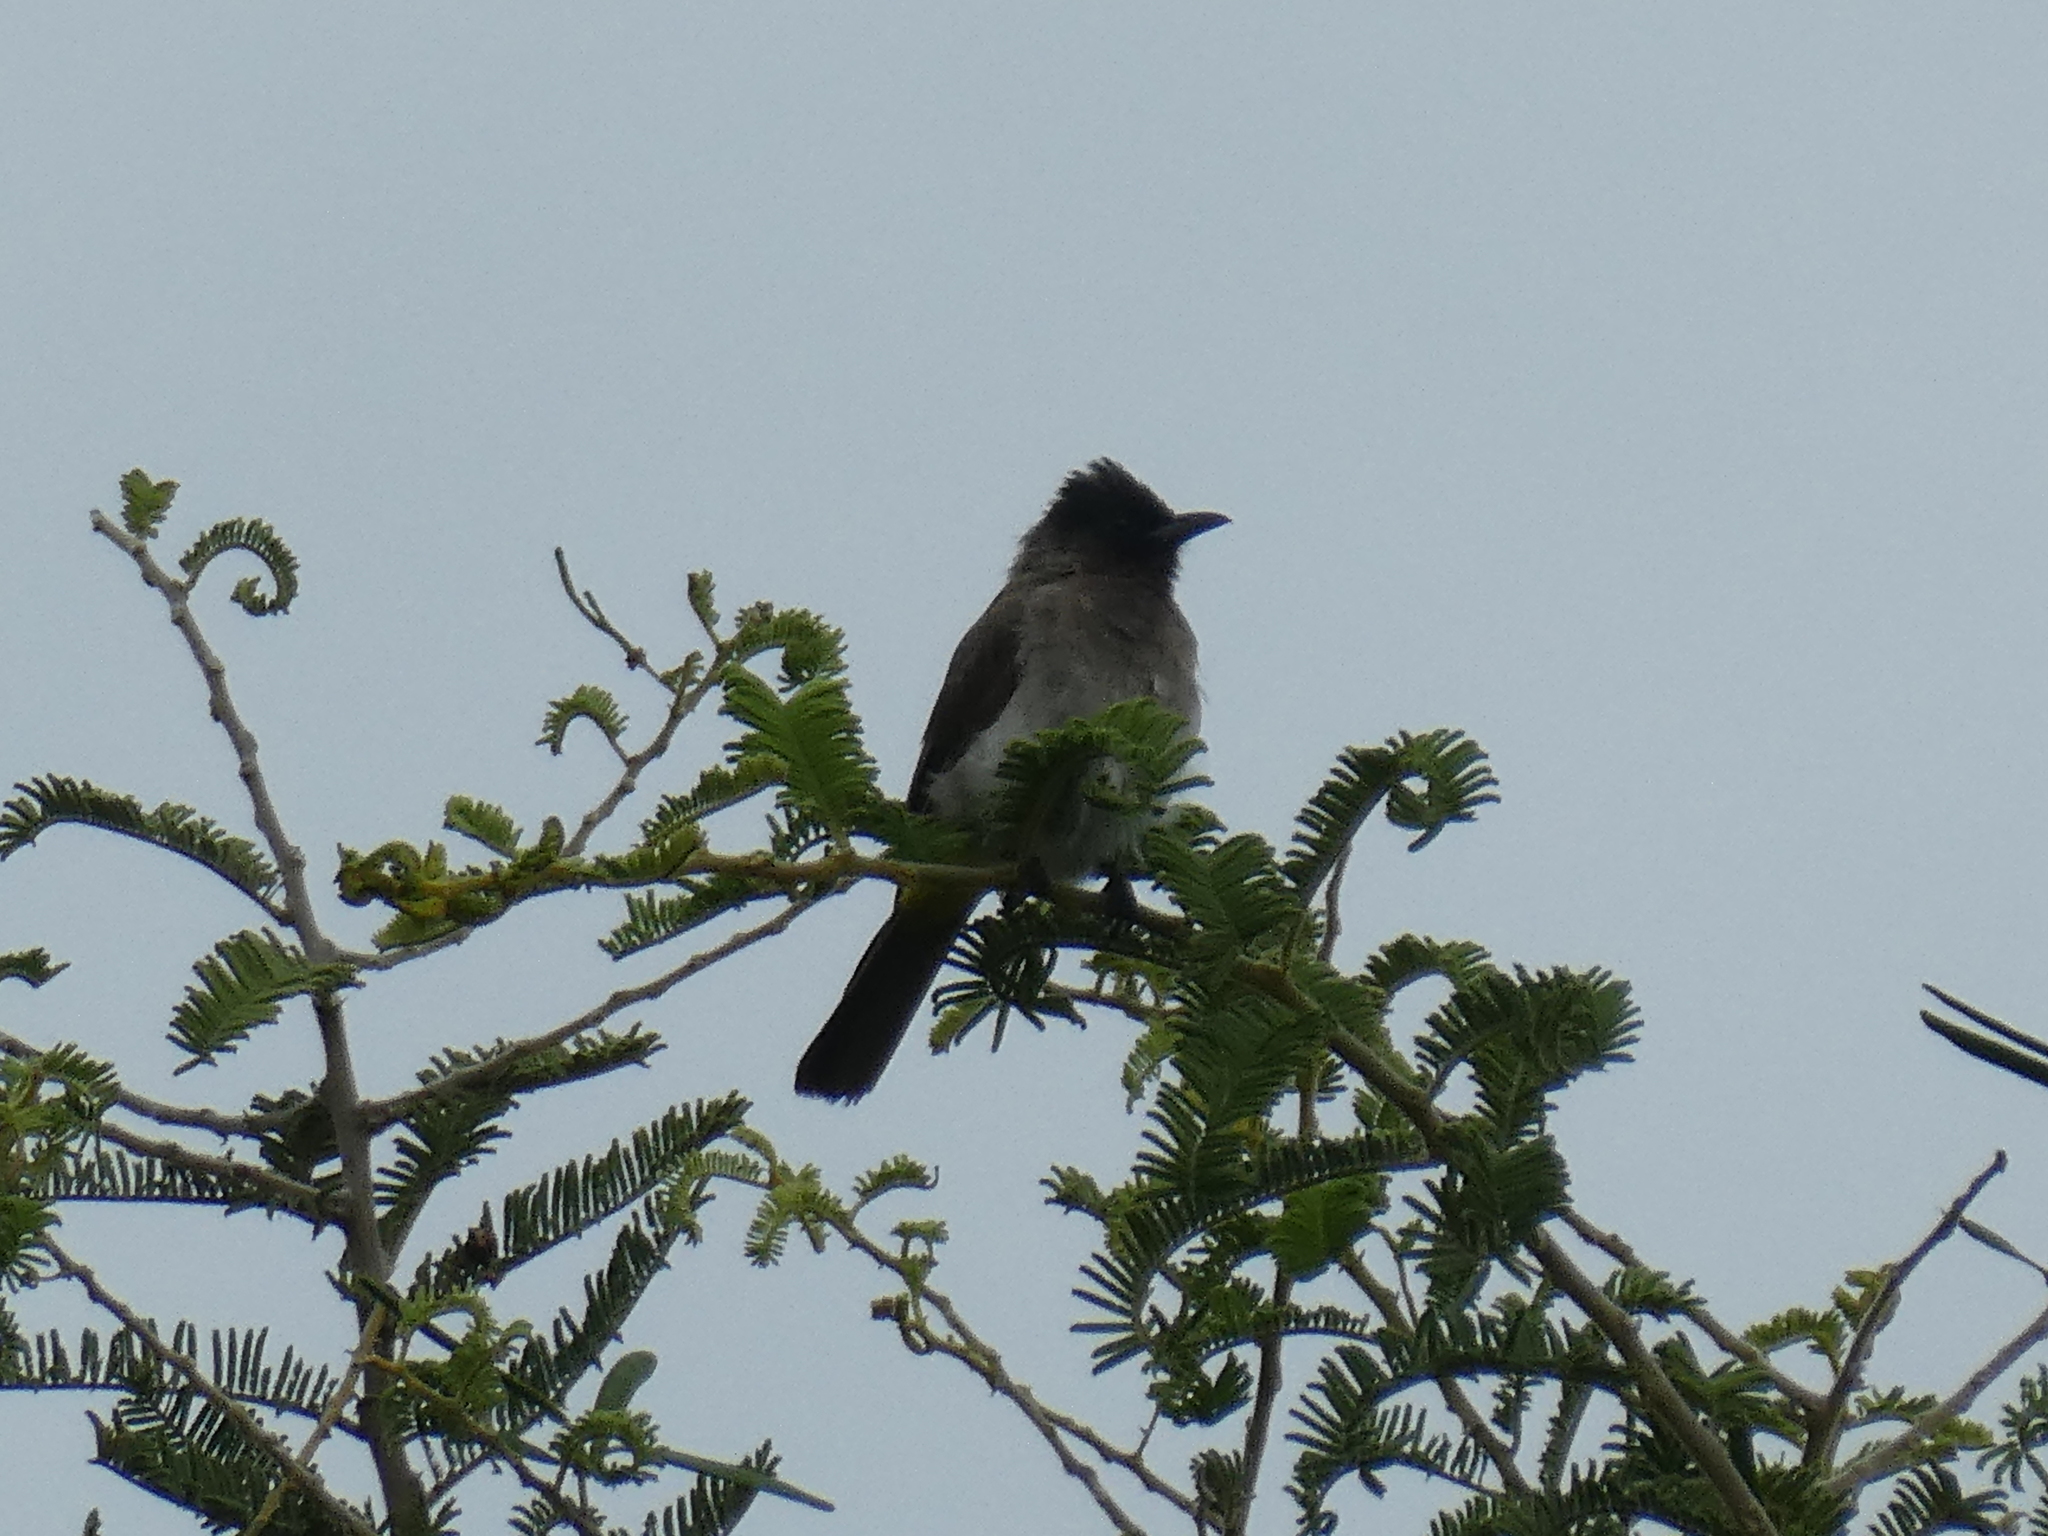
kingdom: Animalia
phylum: Chordata
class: Aves
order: Passeriformes
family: Pycnonotidae
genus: Pycnonotus
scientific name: Pycnonotus barbatus
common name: Common bulbul
